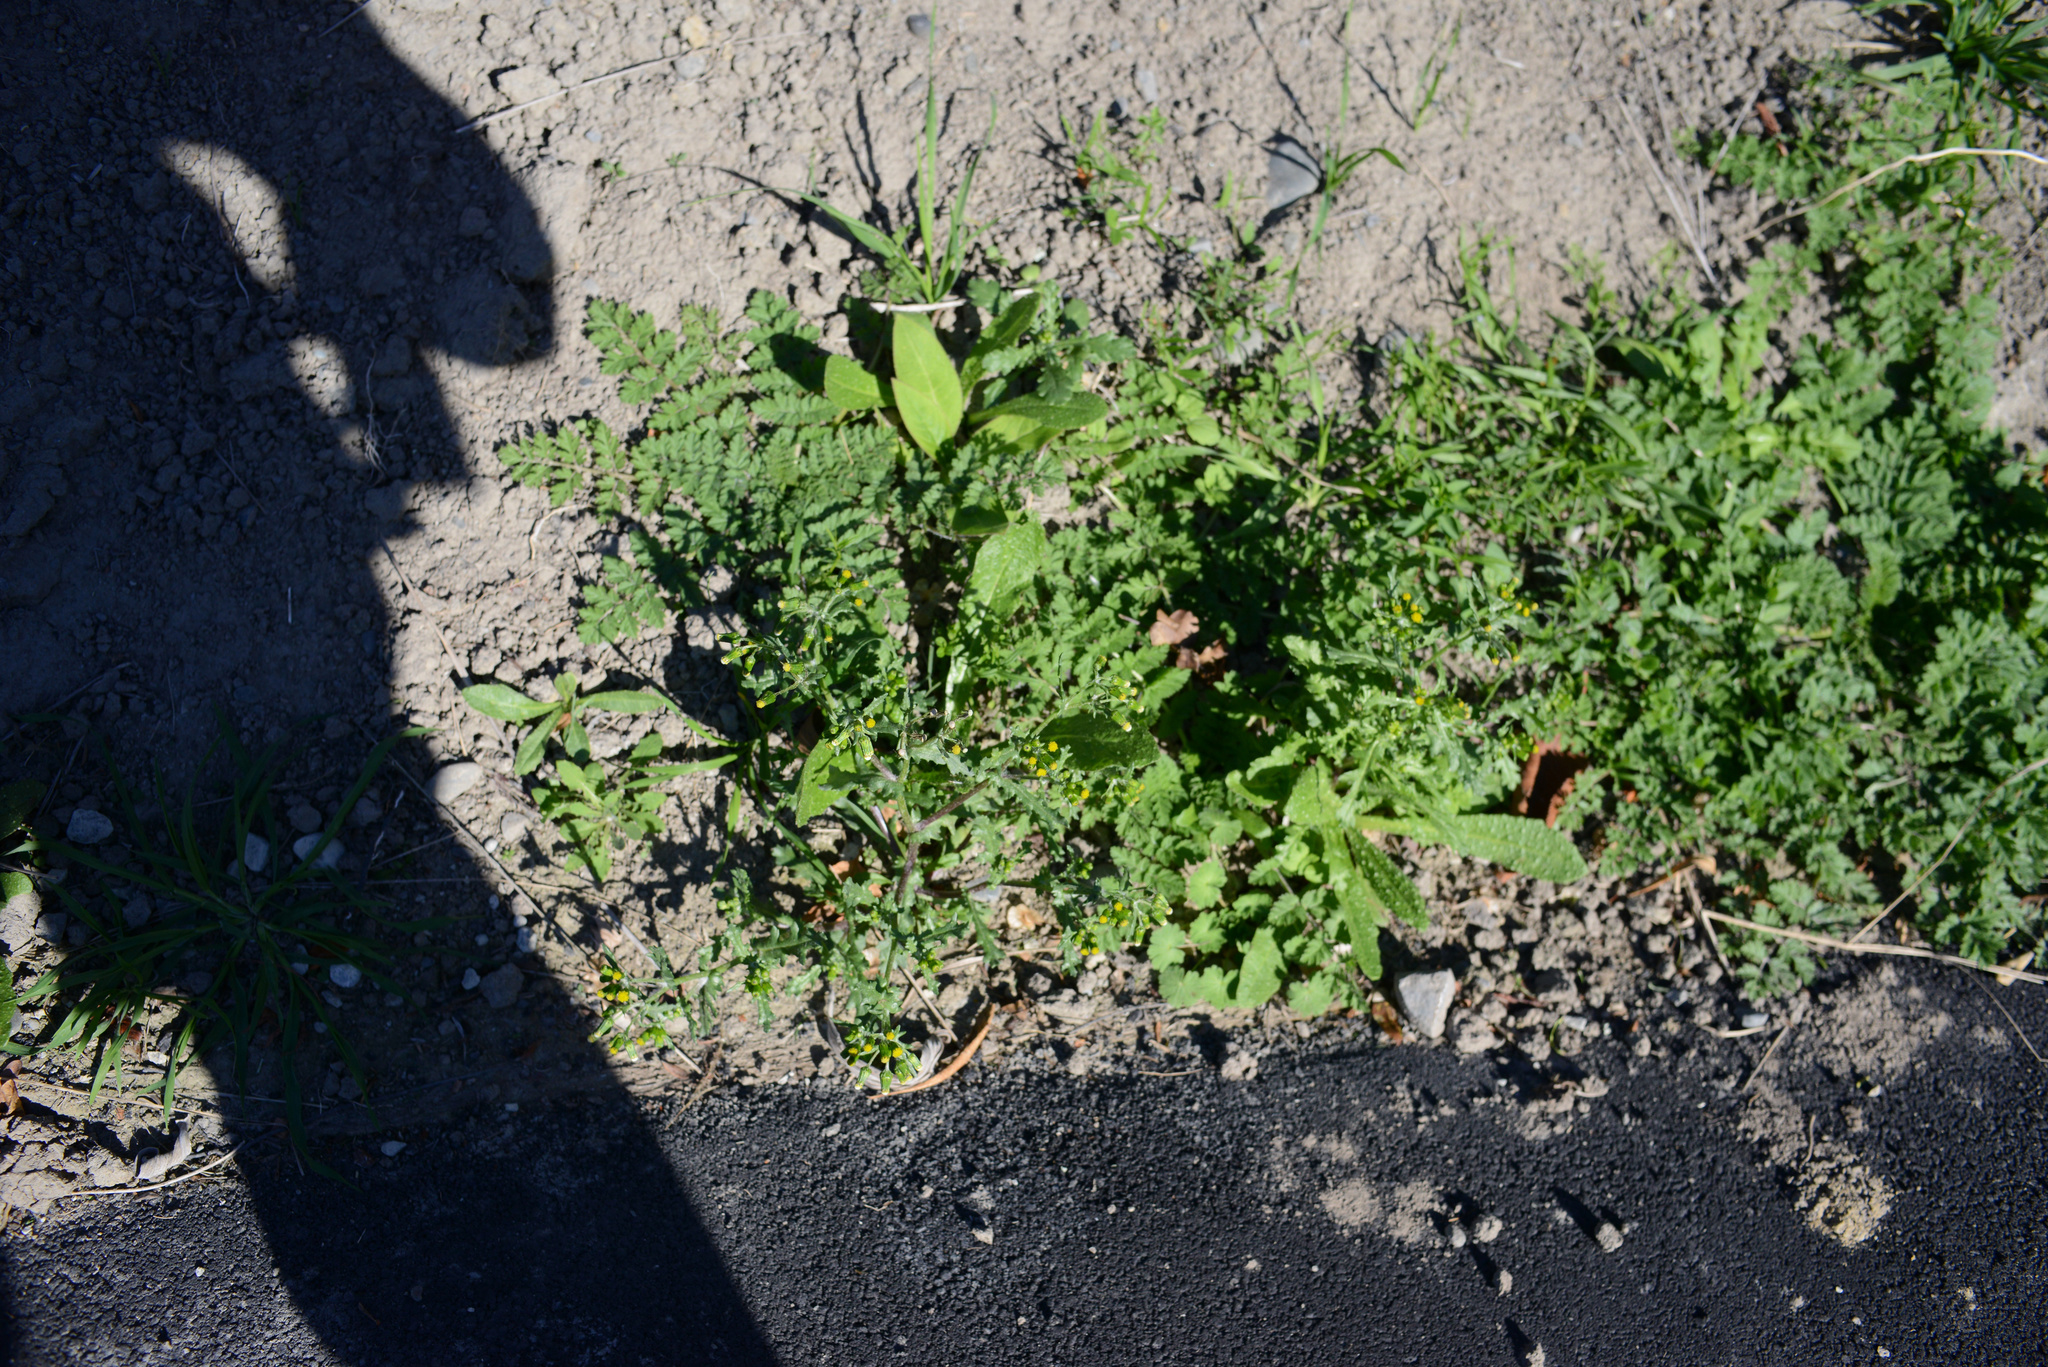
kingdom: Plantae
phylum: Tracheophyta
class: Magnoliopsida
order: Asterales
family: Asteraceae
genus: Senecio
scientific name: Senecio vulgaris
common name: Old-man-in-the-spring
